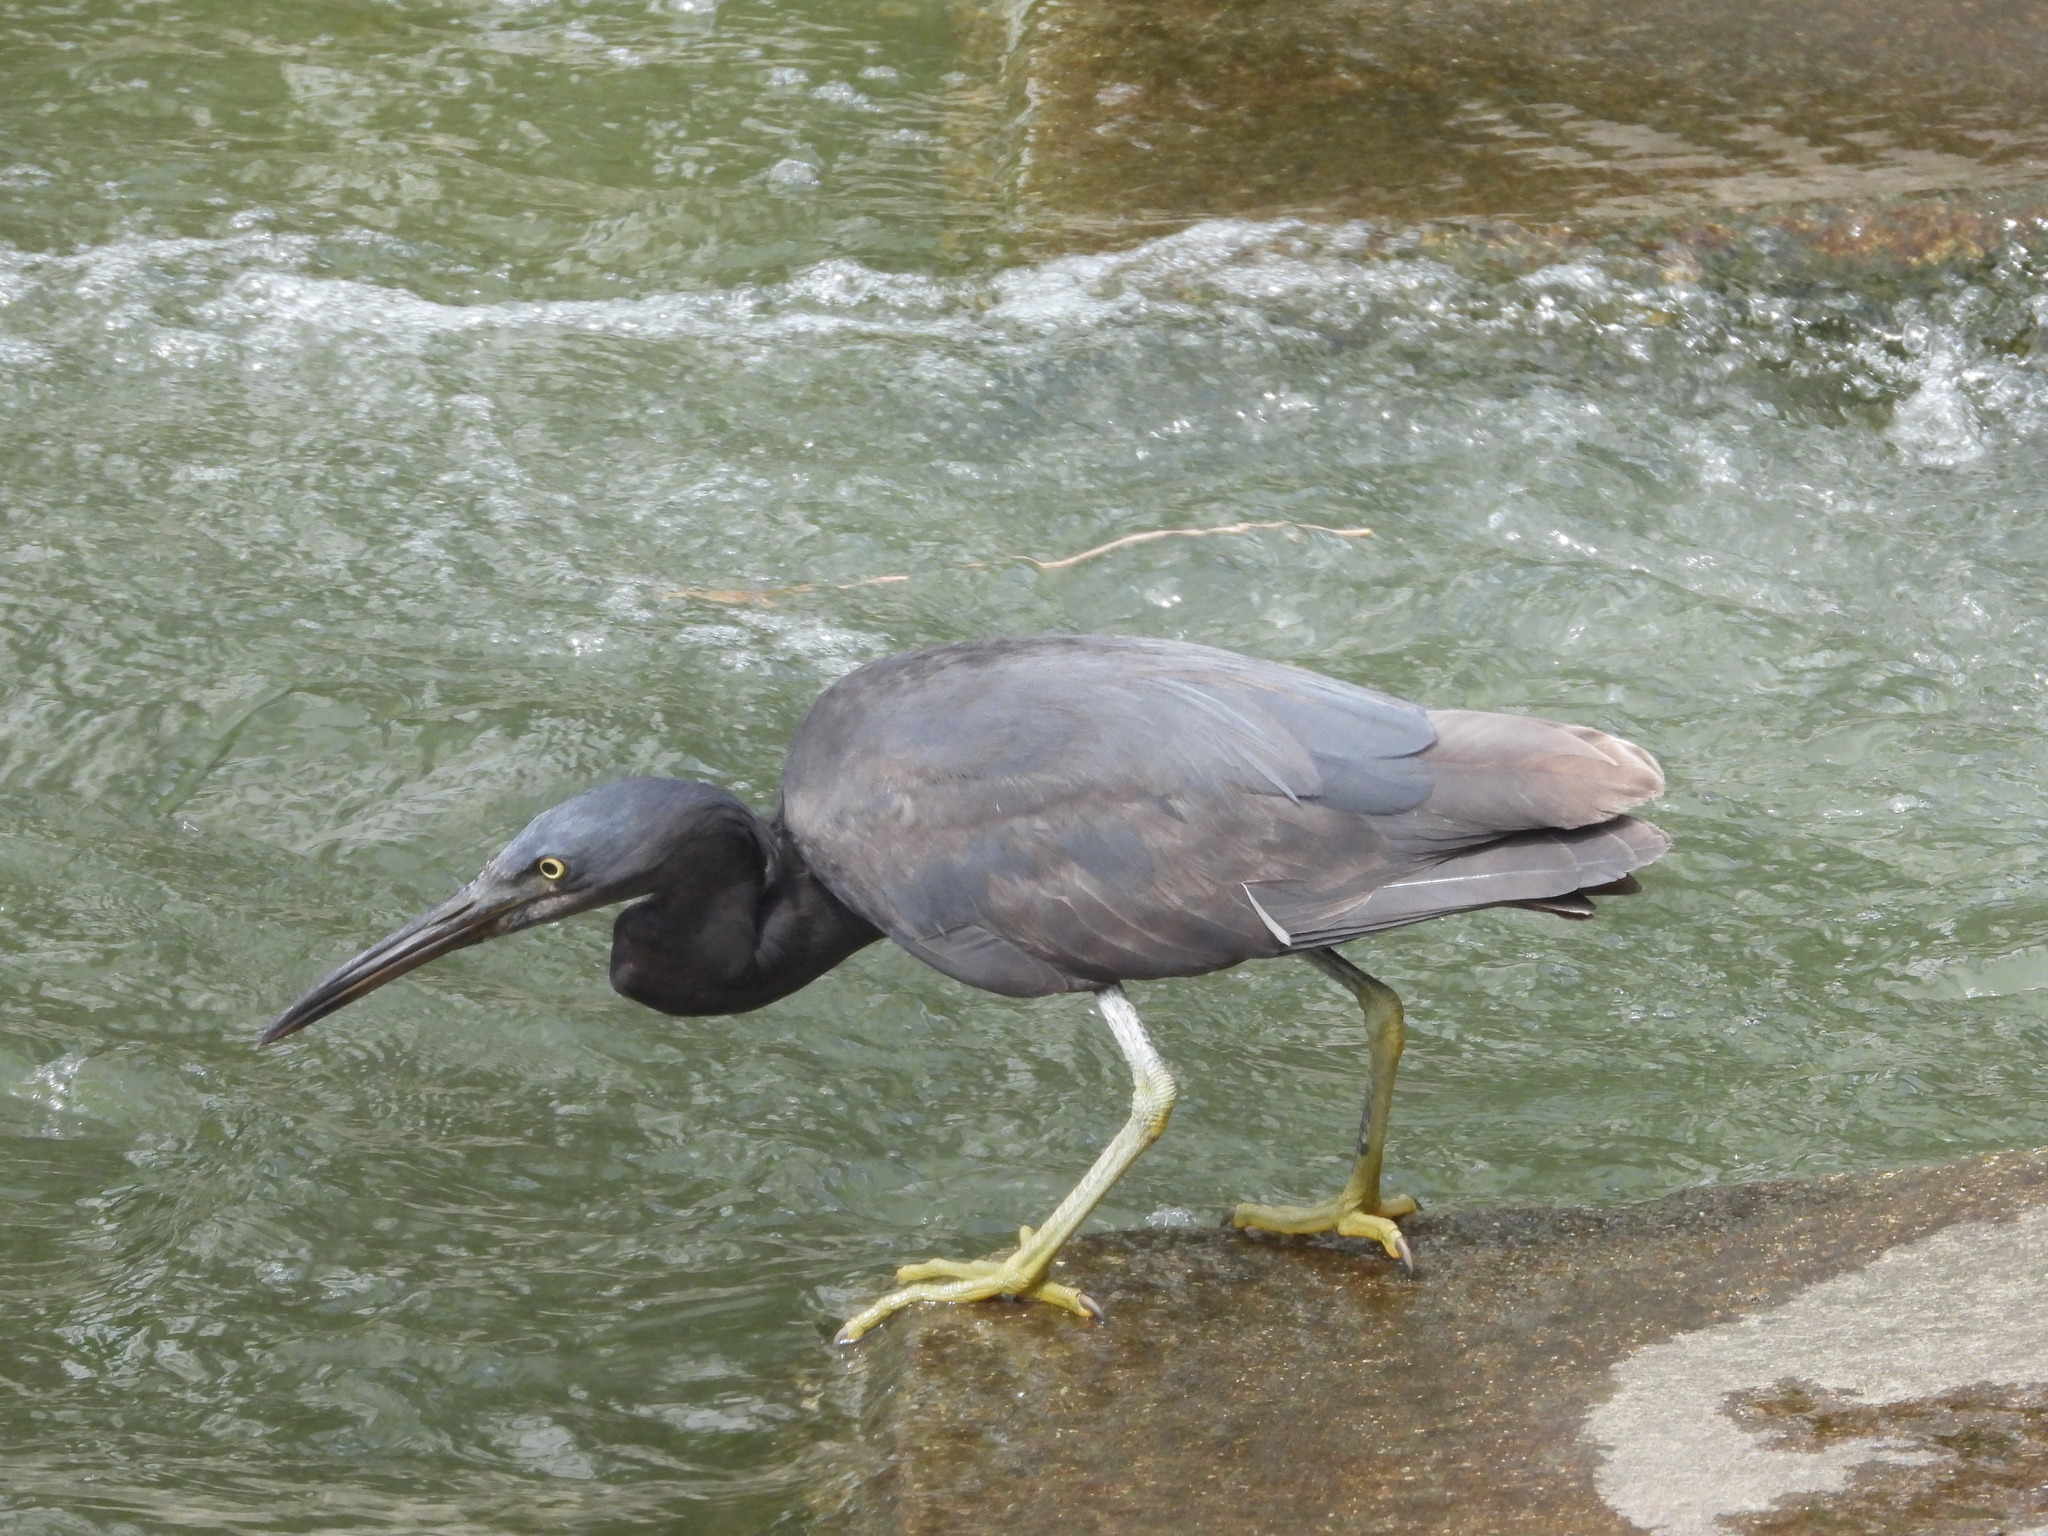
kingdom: Animalia
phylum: Chordata
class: Aves
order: Pelecaniformes
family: Ardeidae
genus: Egretta
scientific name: Egretta sacra
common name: Pacific reef heron
